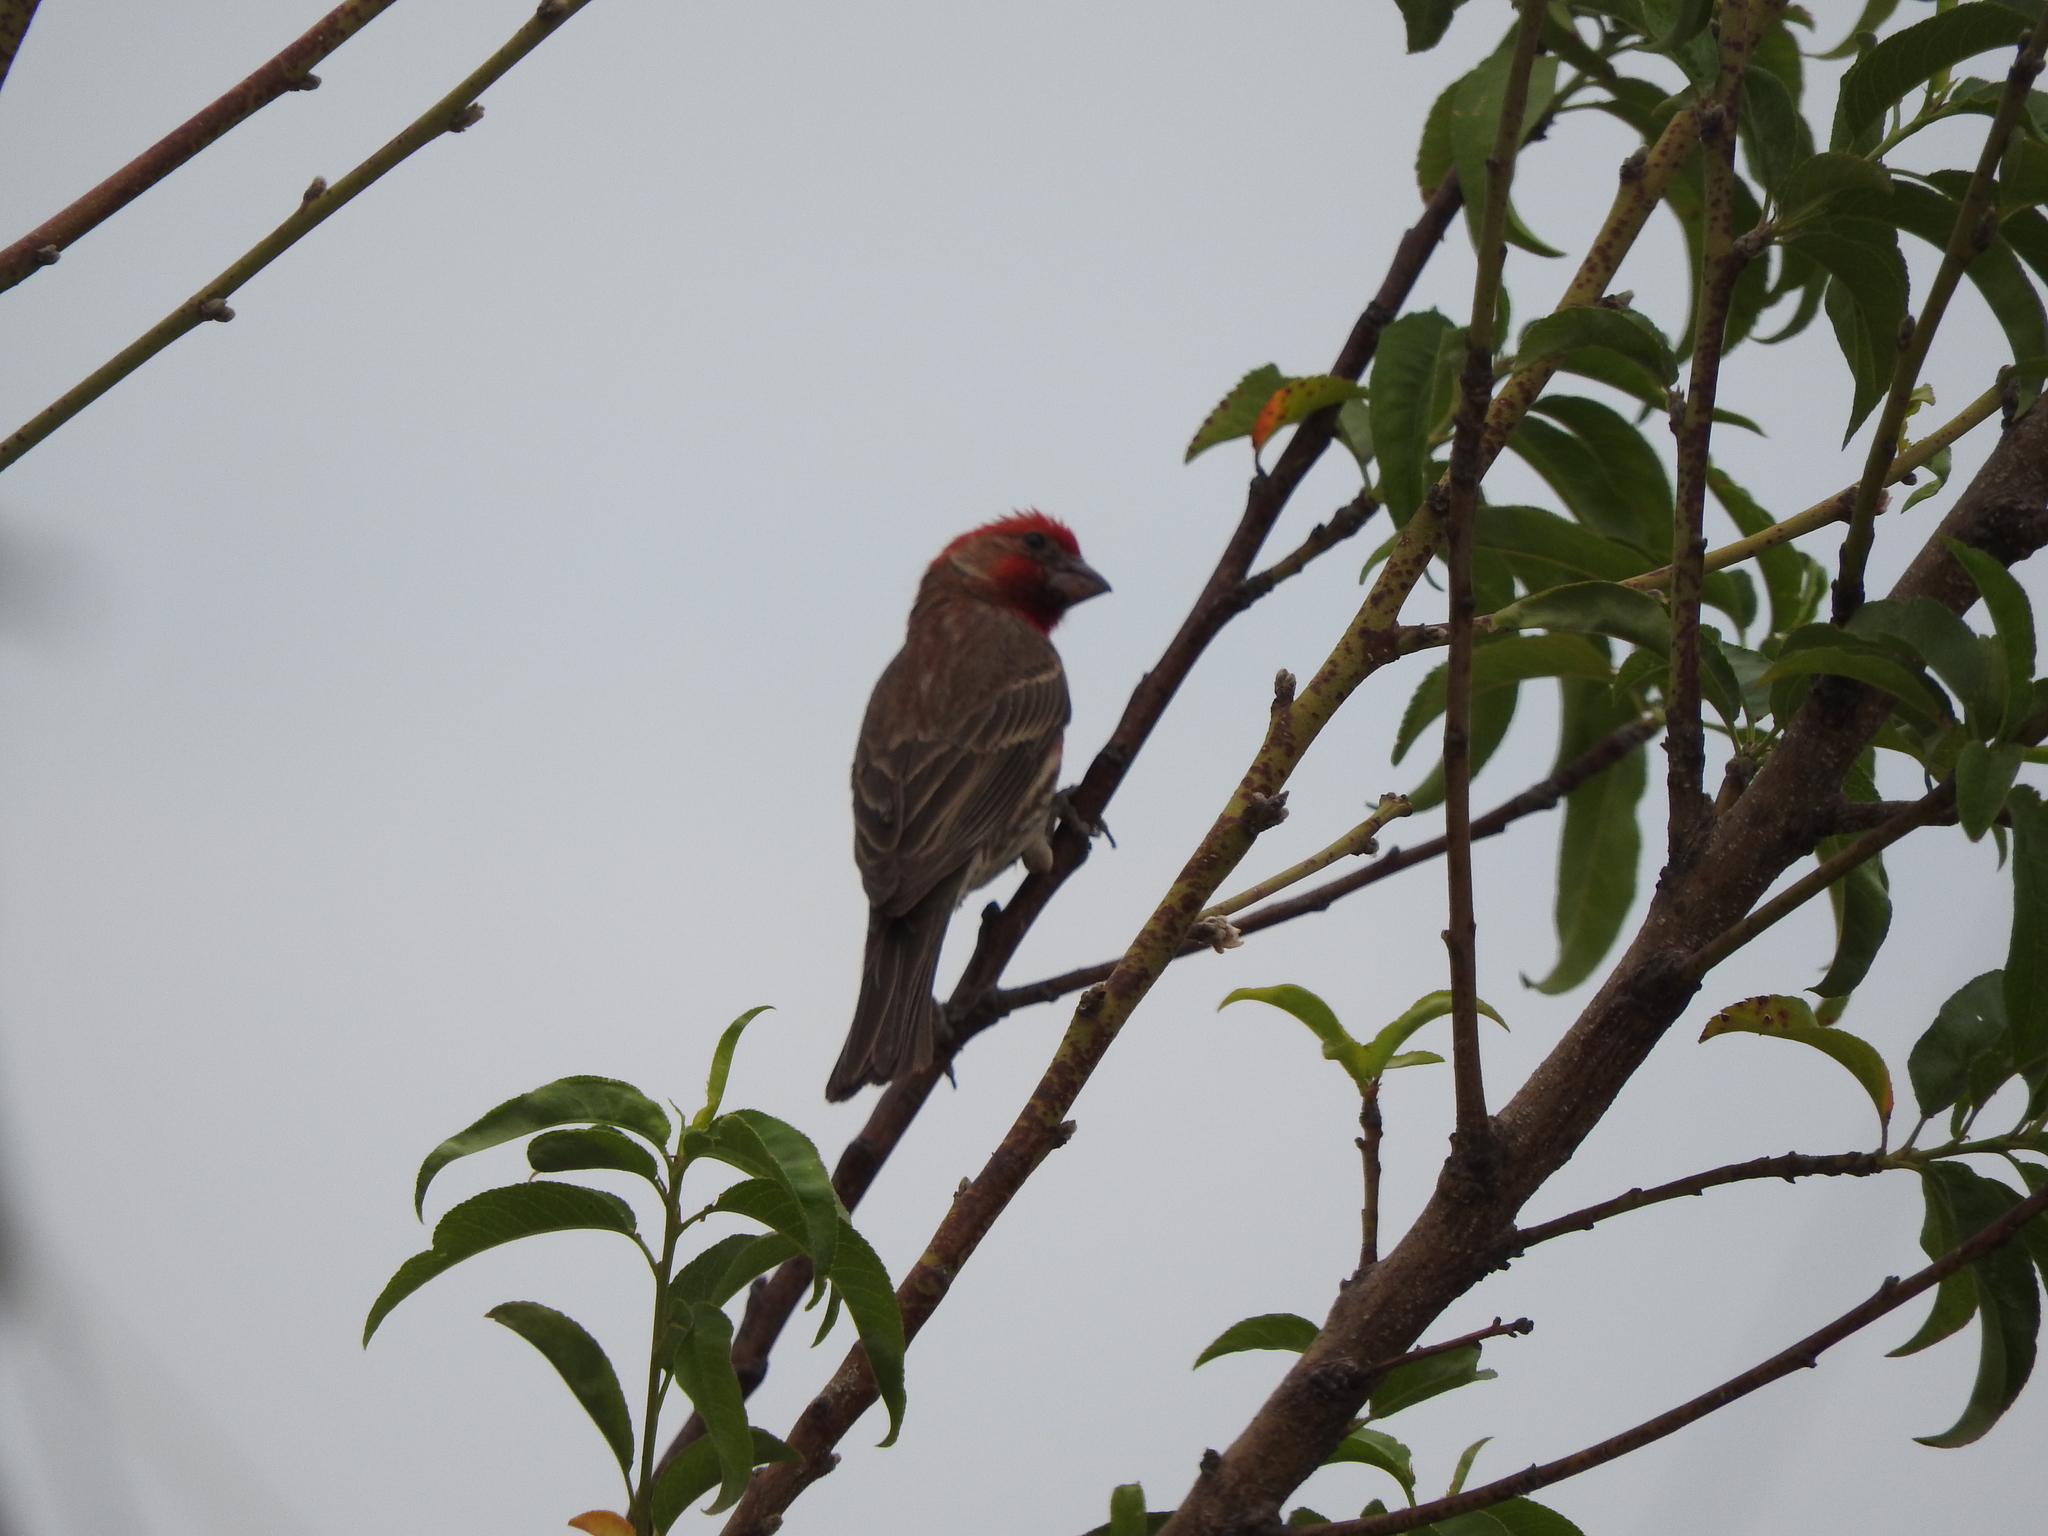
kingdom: Animalia
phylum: Chordata
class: Aves
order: Passeriformes
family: Fringillidae
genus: Haemorhous
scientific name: Haemorhous mexicanus
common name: House finch
